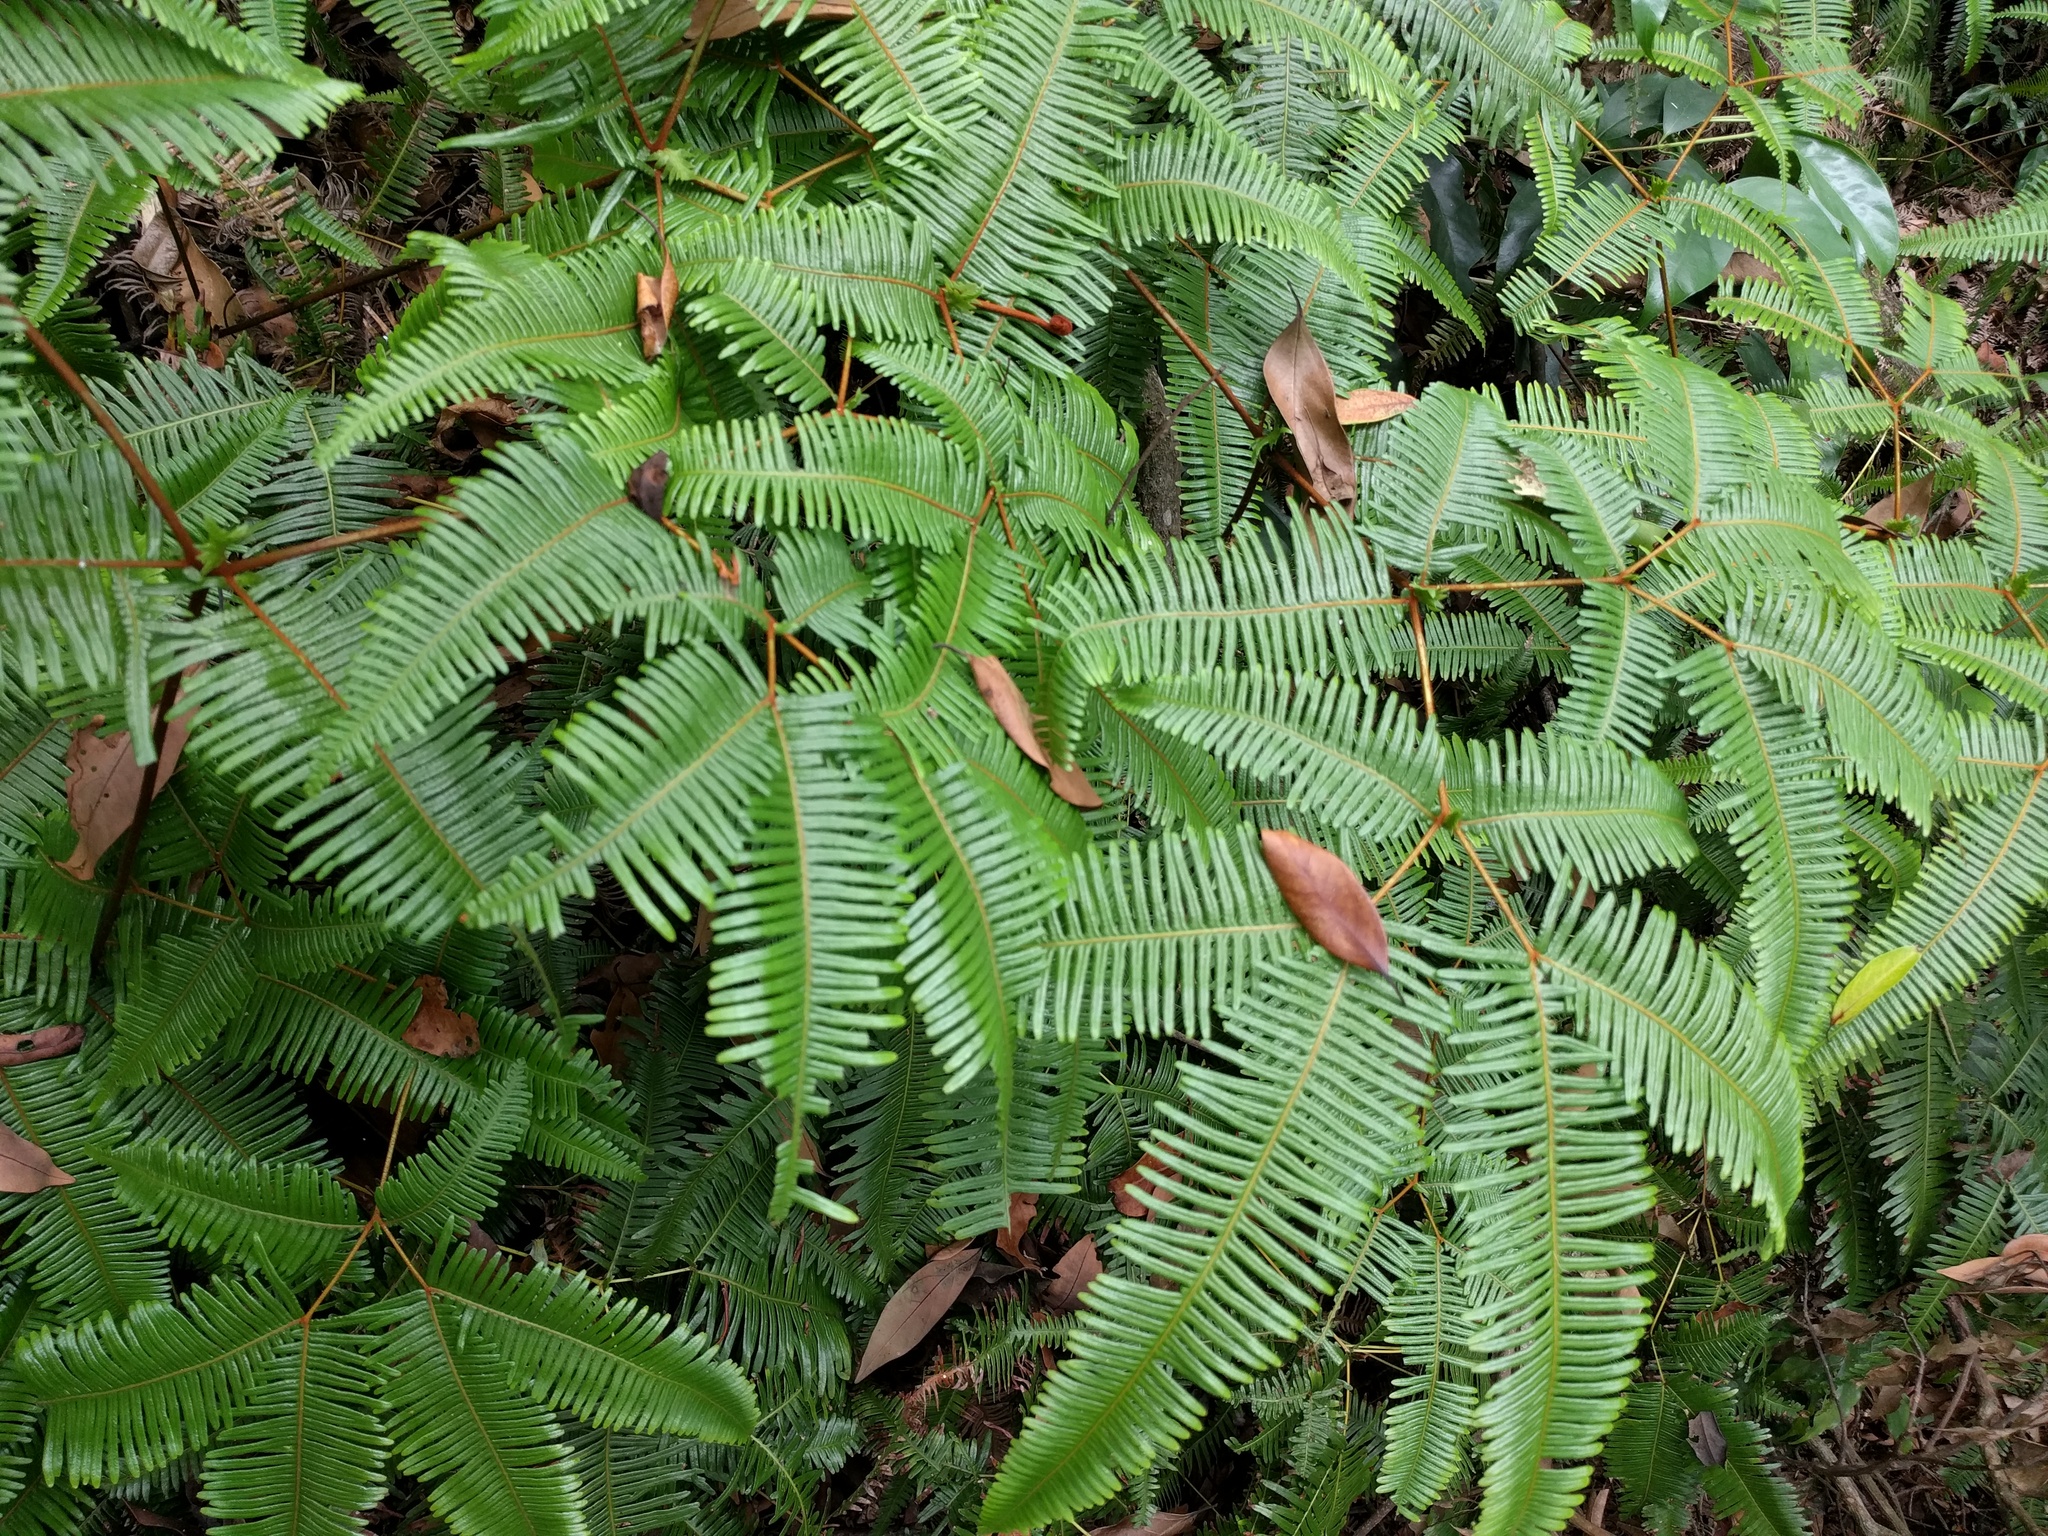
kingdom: Plantae
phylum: Tracheophyta
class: Polypodiopsida
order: Gleicheniales
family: Gleicheniaceae
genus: Dicranopteris
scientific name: Dicranopteris linearis
